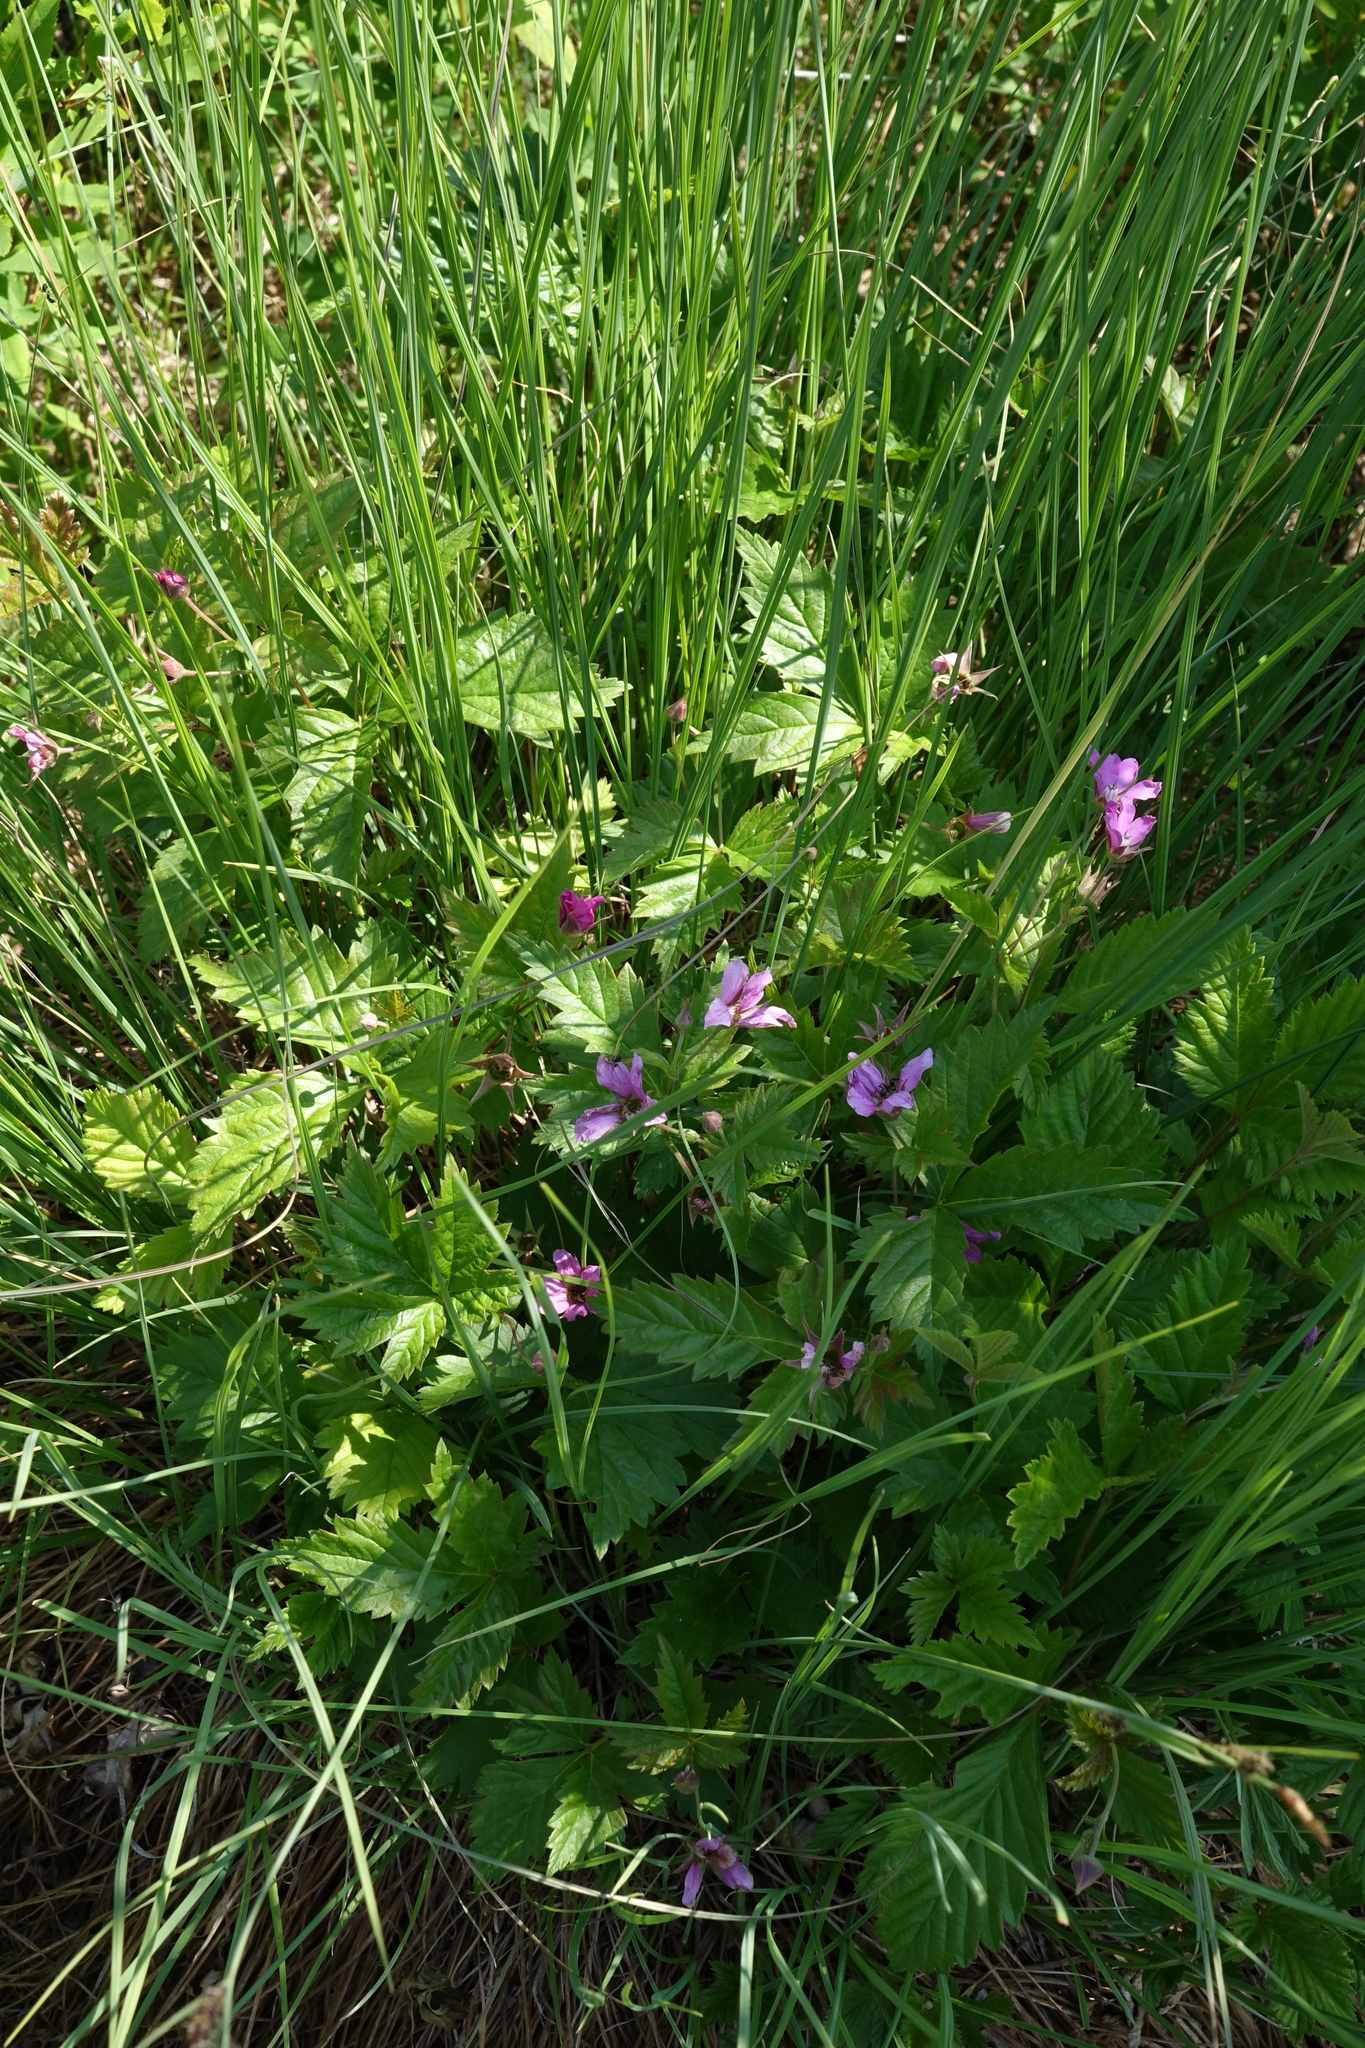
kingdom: Plantae
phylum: Tracheophyta
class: Magnoliopsida
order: Rosales
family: Rosaceae
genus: Rubus
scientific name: Rubus arcticus
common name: Arctic bramble
